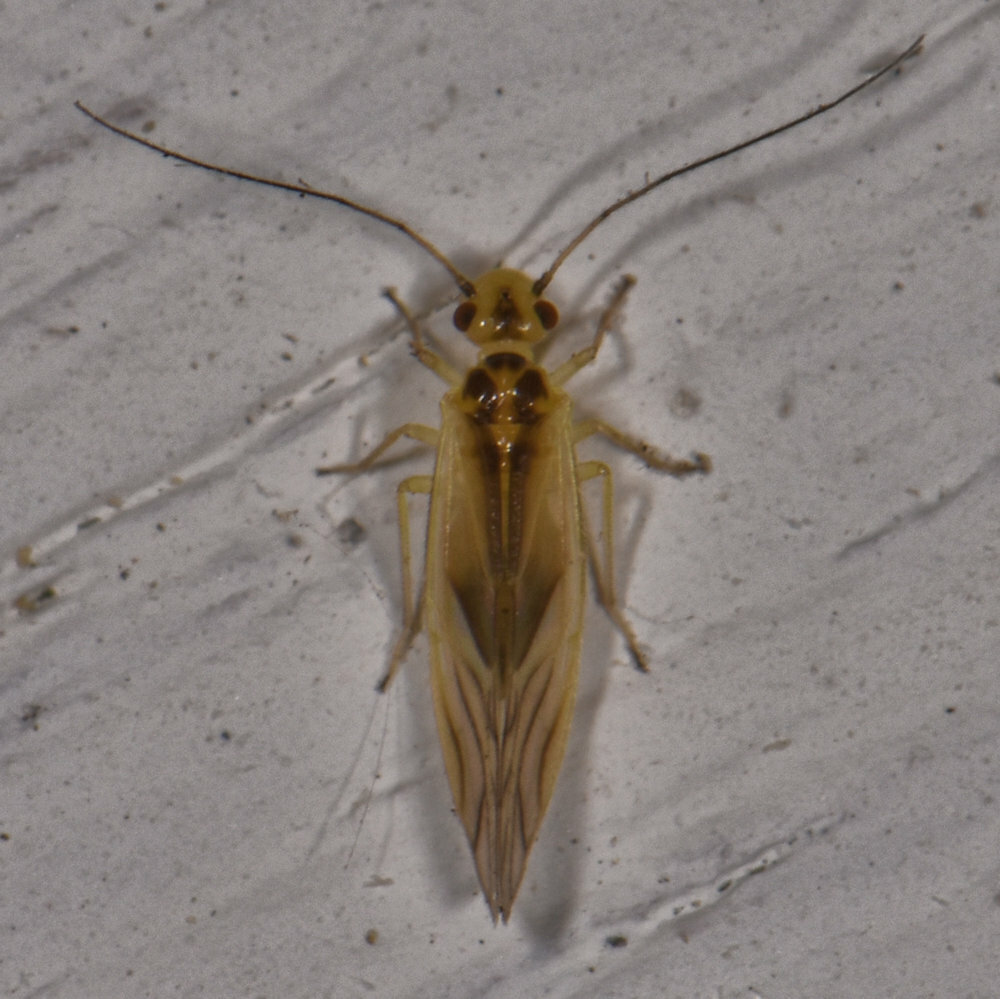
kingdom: Animalia
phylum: Arthropoda
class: Insecta
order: Psocodea
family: Caeciliusidae
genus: Valenzuela
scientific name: Valenzuela flavidus
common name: Yellow barklouse
